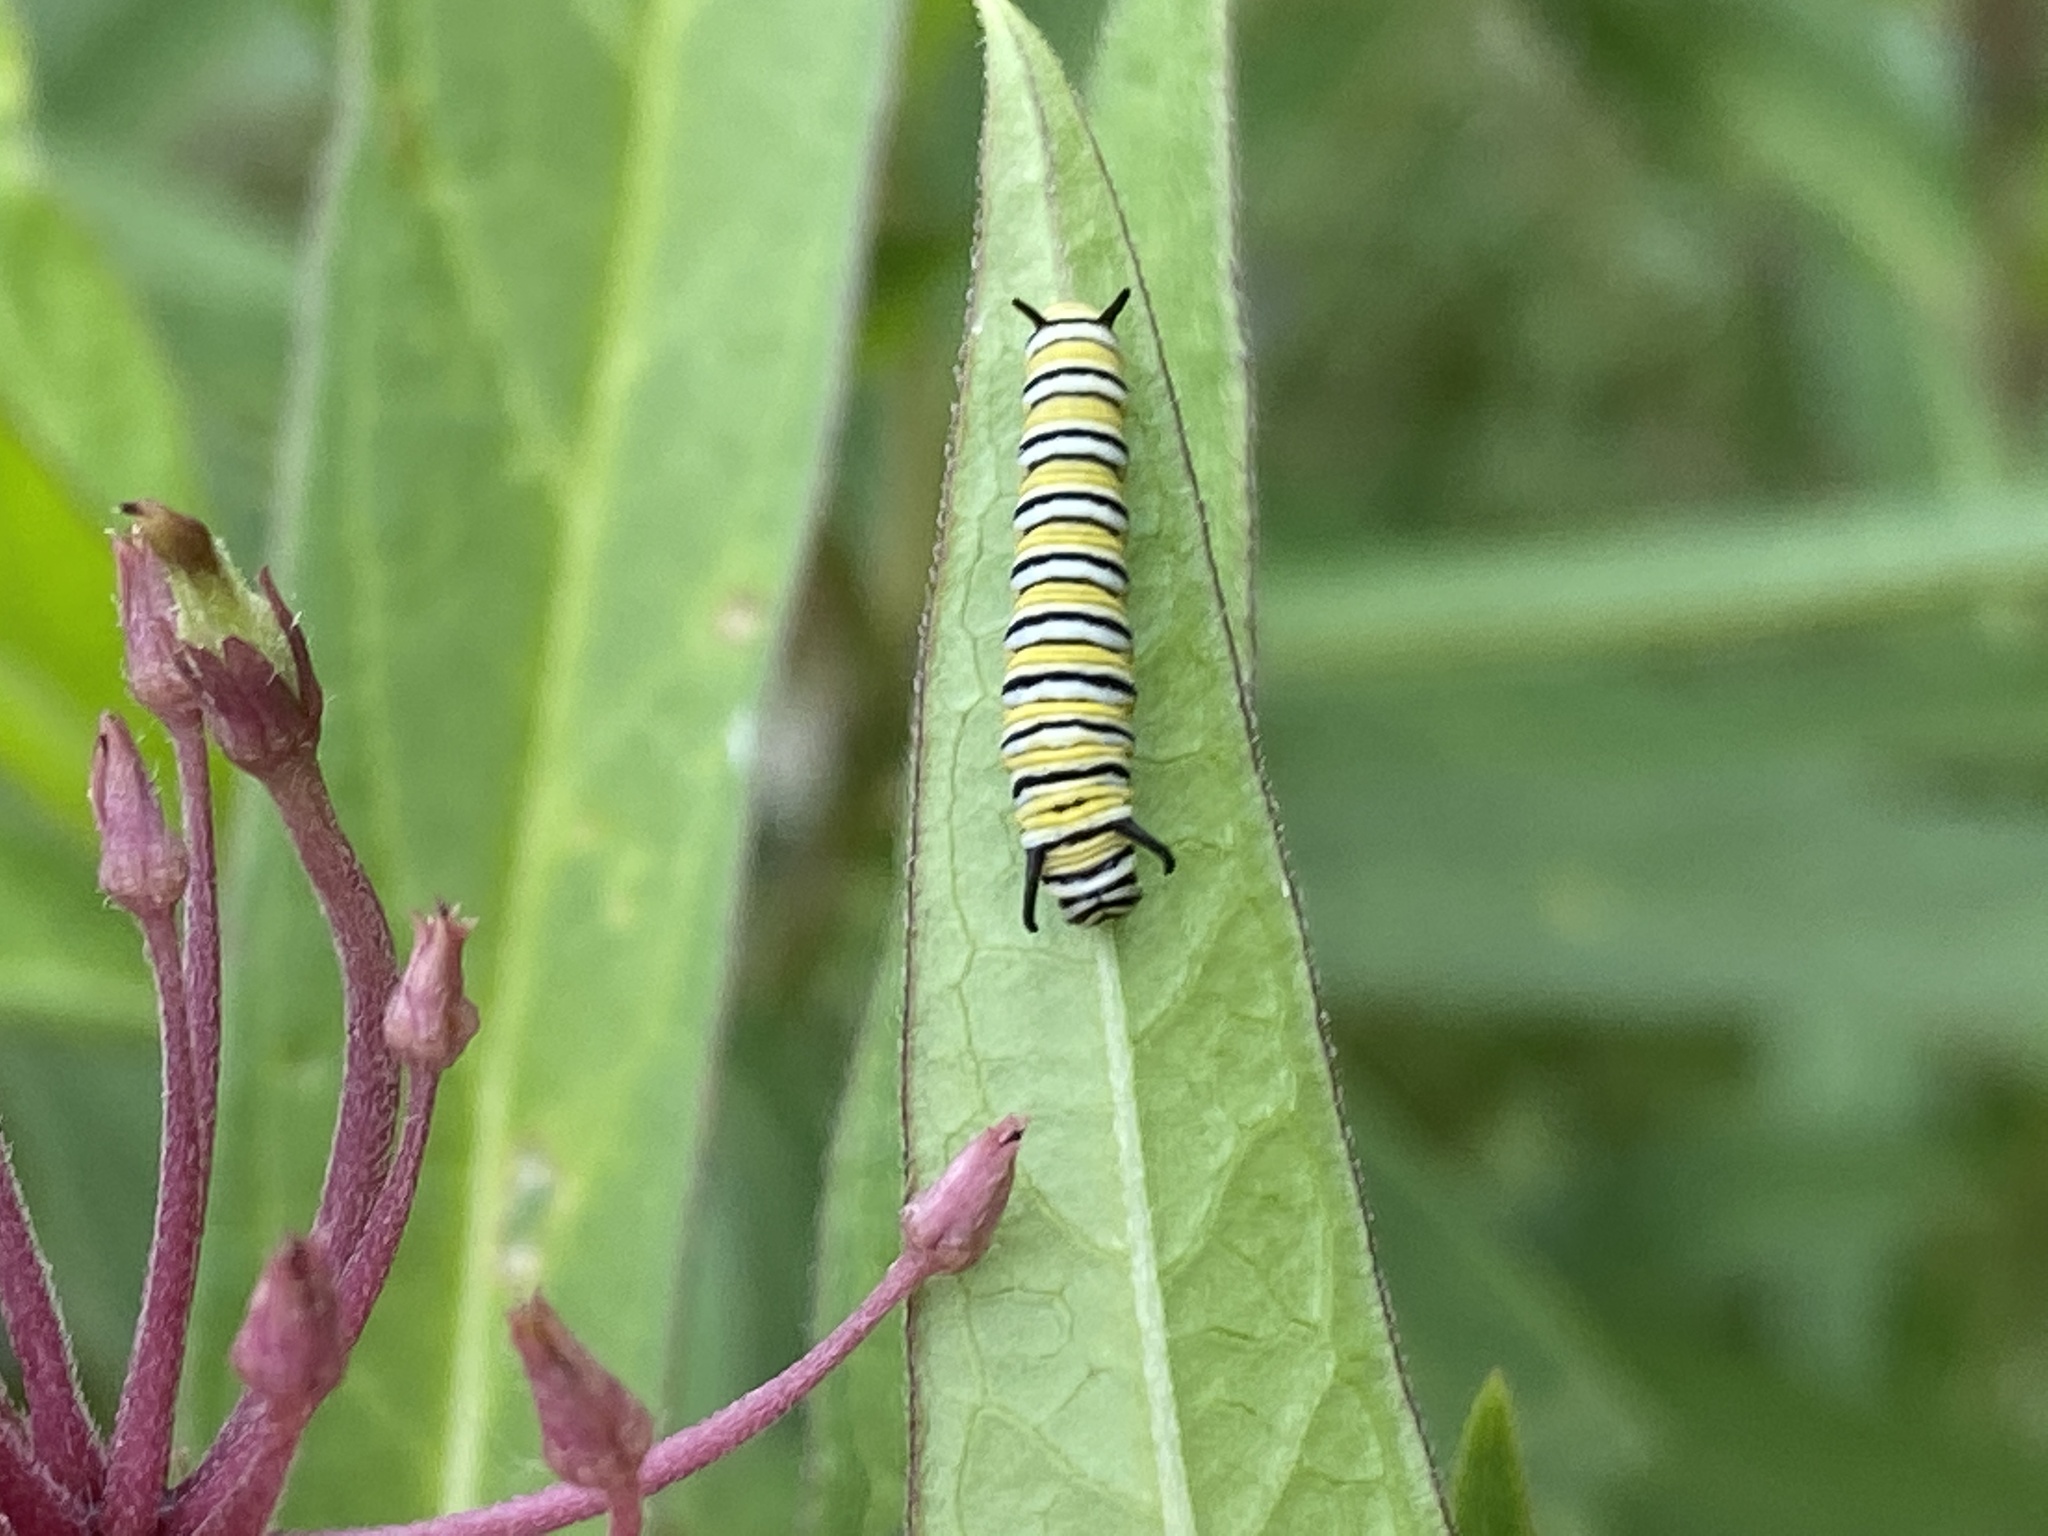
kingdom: Animalia
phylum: Arthropoda
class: Insecta
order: Lepidoptera
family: Nymphalidae
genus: Danaus
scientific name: Danaus plexippus
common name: Monarch
